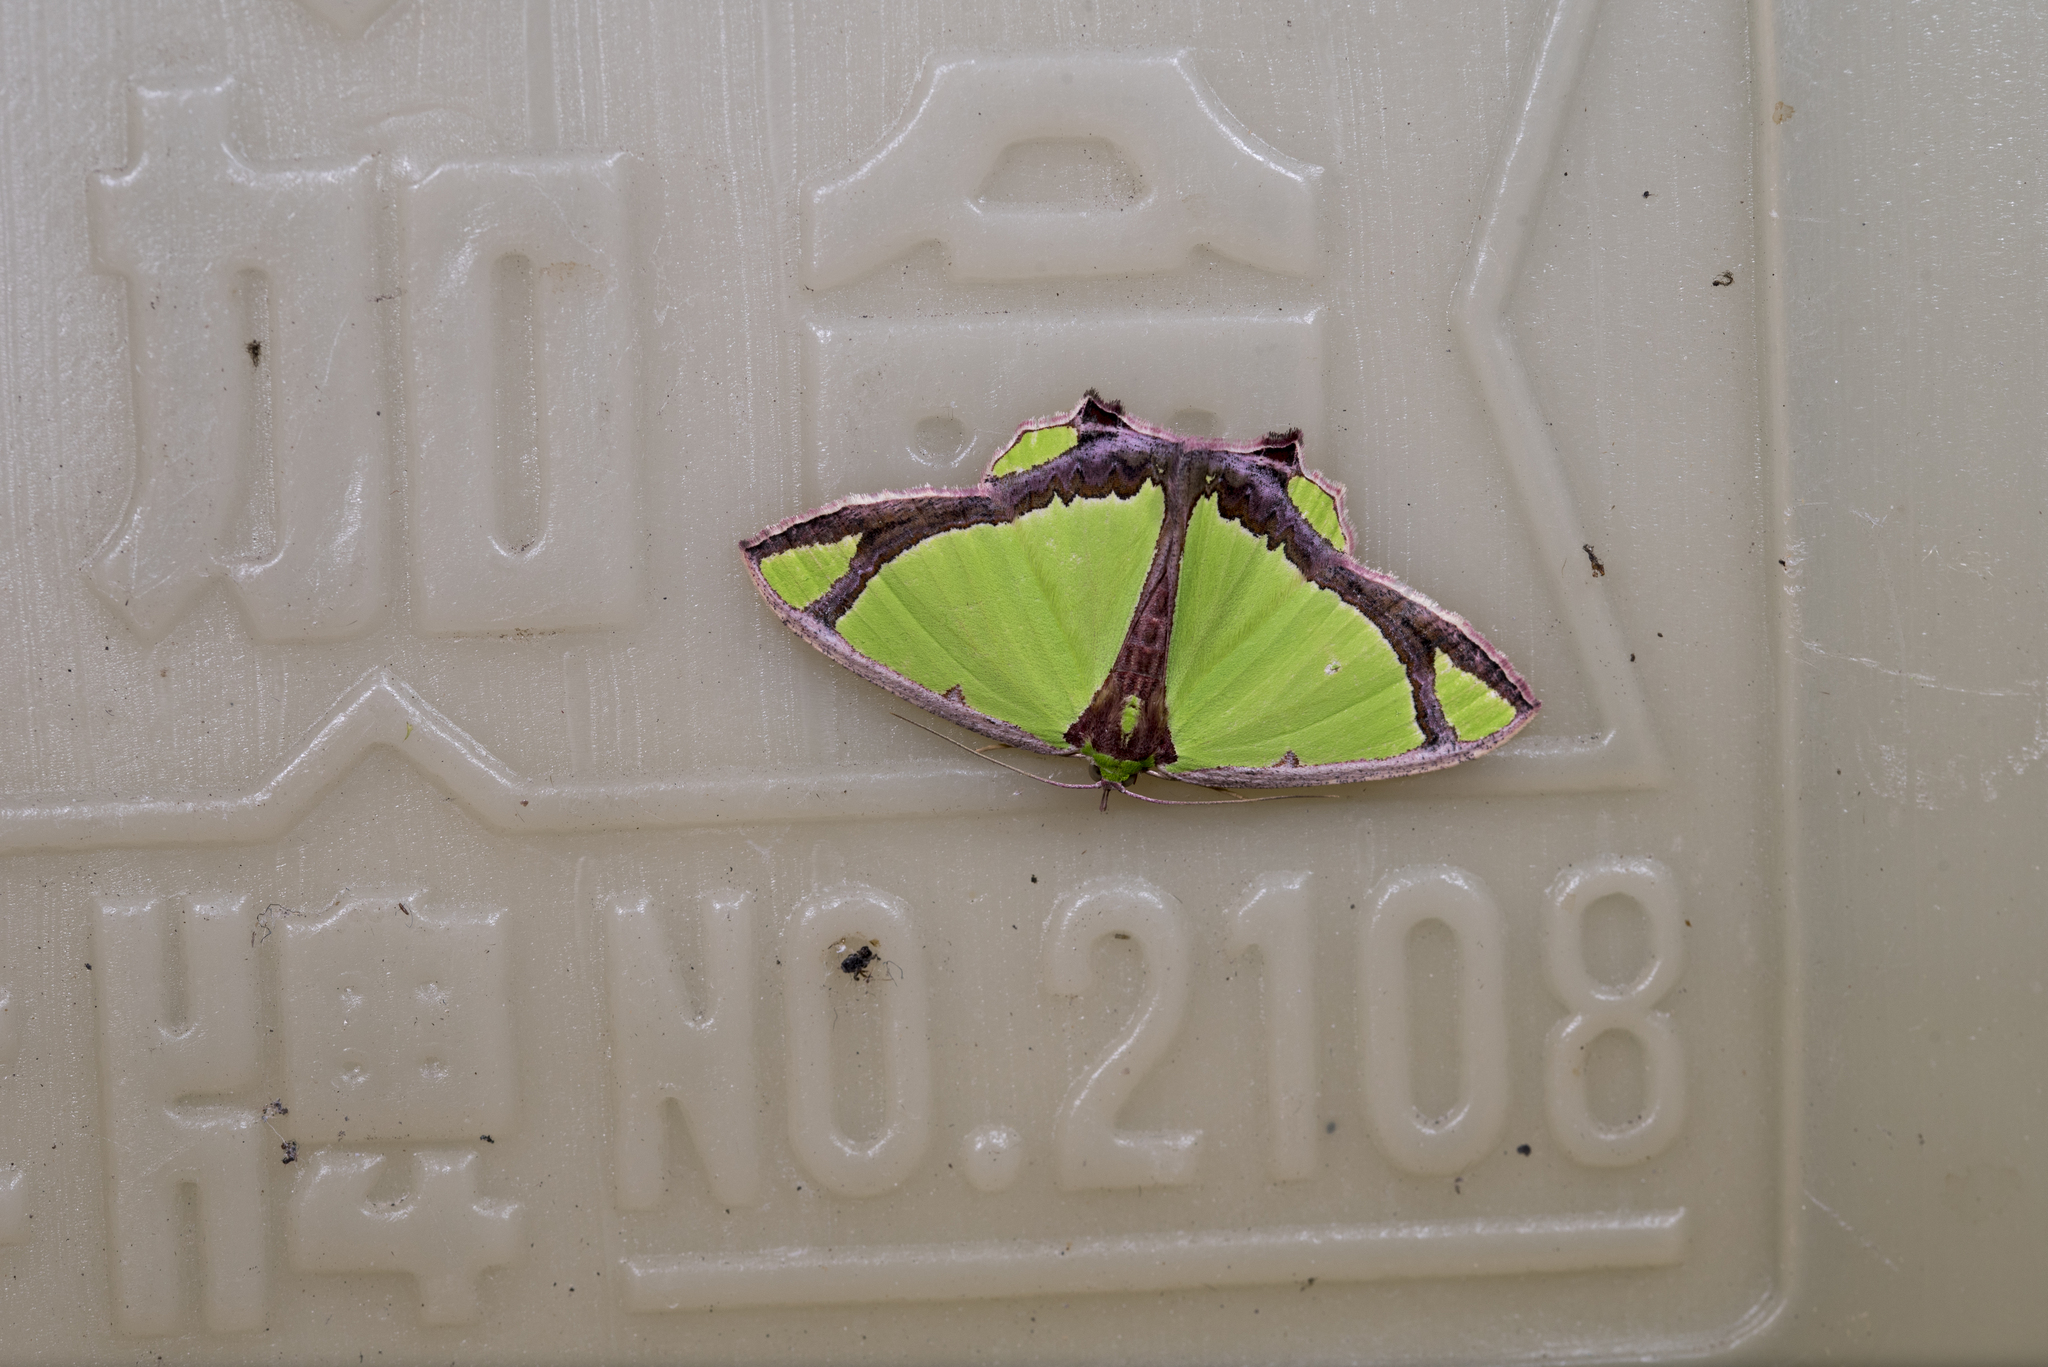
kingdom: Animalia
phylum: Arthropoda
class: Insecta
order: Lepidoptera
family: Geometridae
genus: Agathia
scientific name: Agathia laetata
